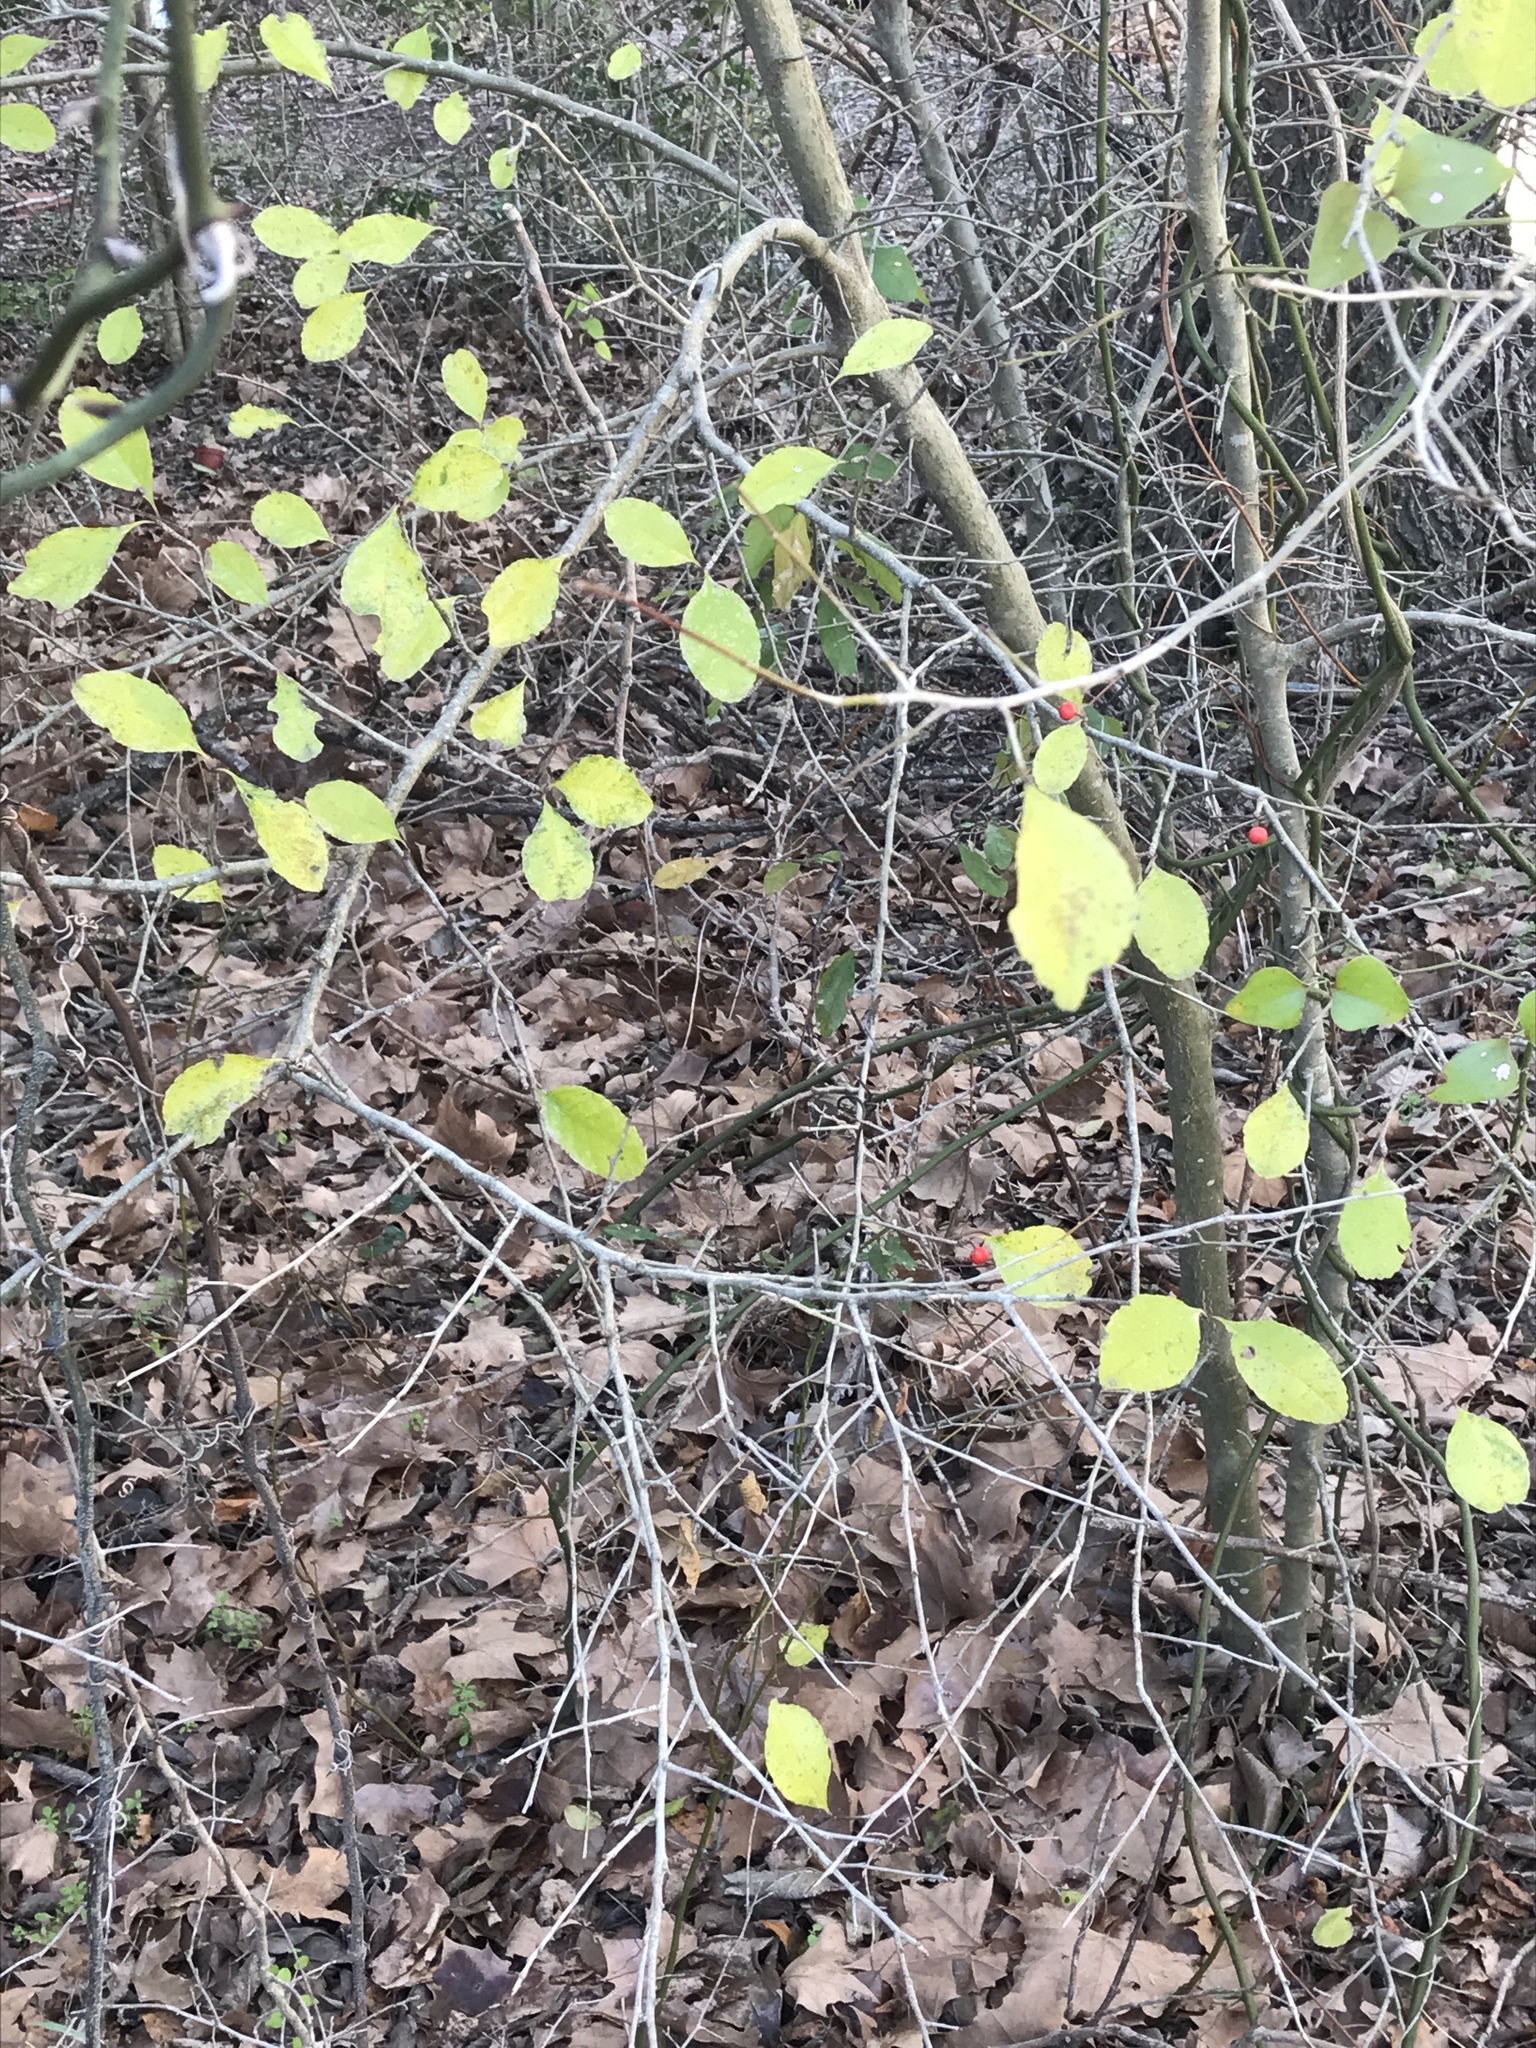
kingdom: Plantae
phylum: Tracheophyta
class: Magnoliopsida
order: Aquifoliales
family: Aquifoliaceae
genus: Ilex
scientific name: Ilex decidua
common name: Possum-haw
